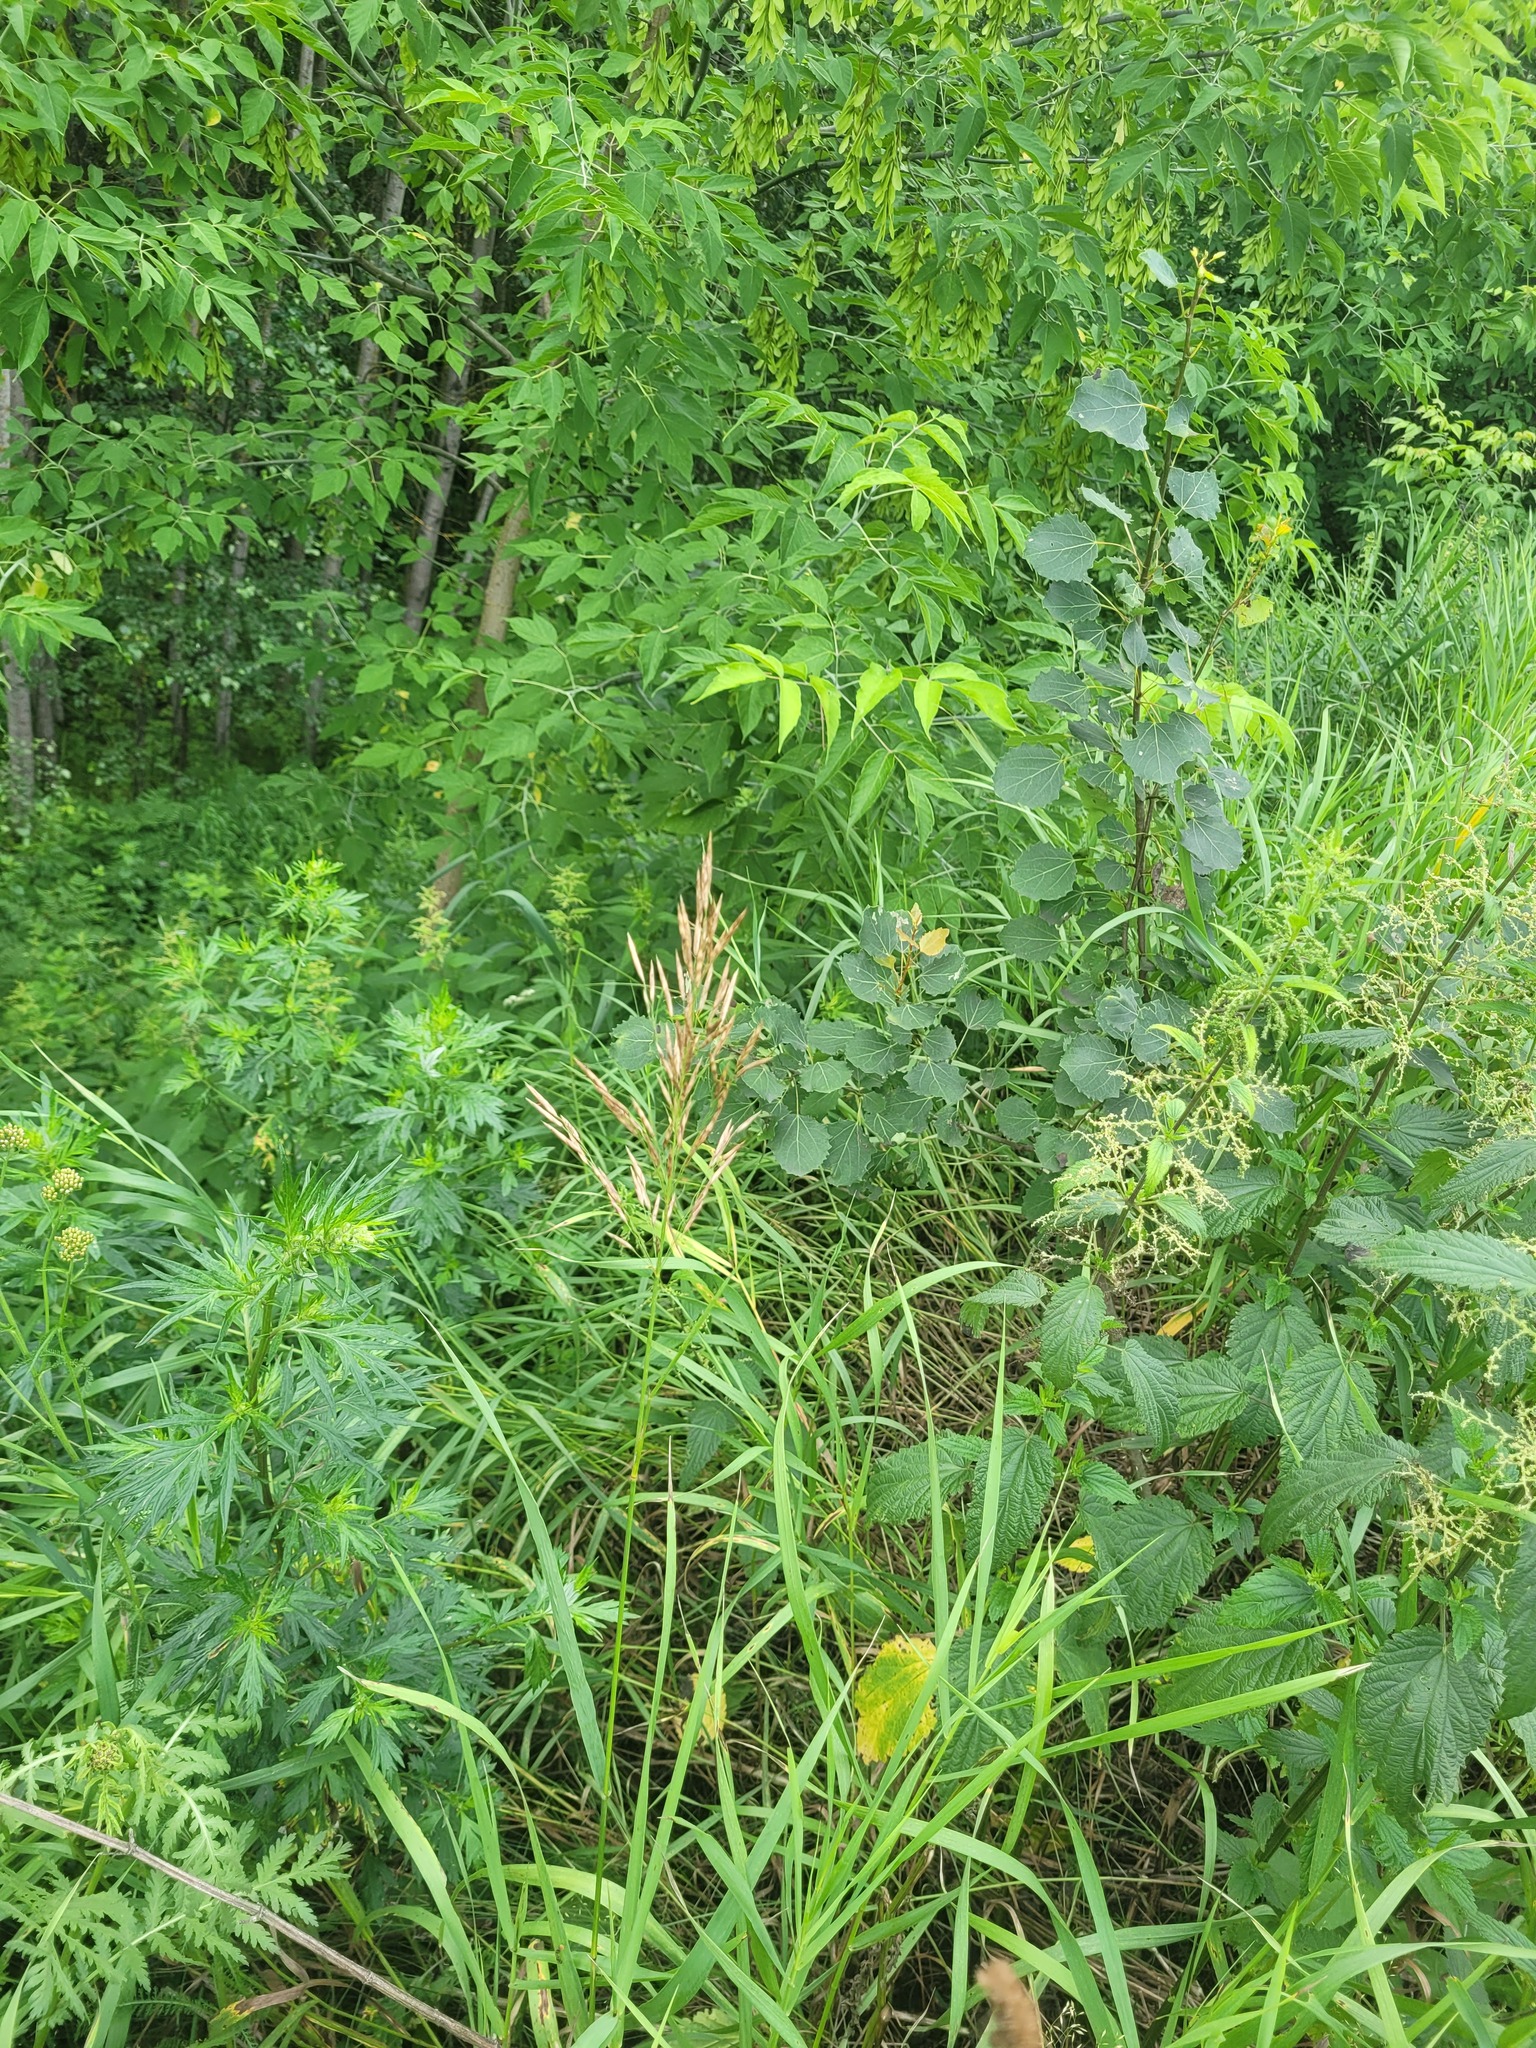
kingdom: Plantae
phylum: Tracheophyta
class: Liliopsida
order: Poales
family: Poaceae
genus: Bromus
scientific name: Bromus inermis
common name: Smooth brome
